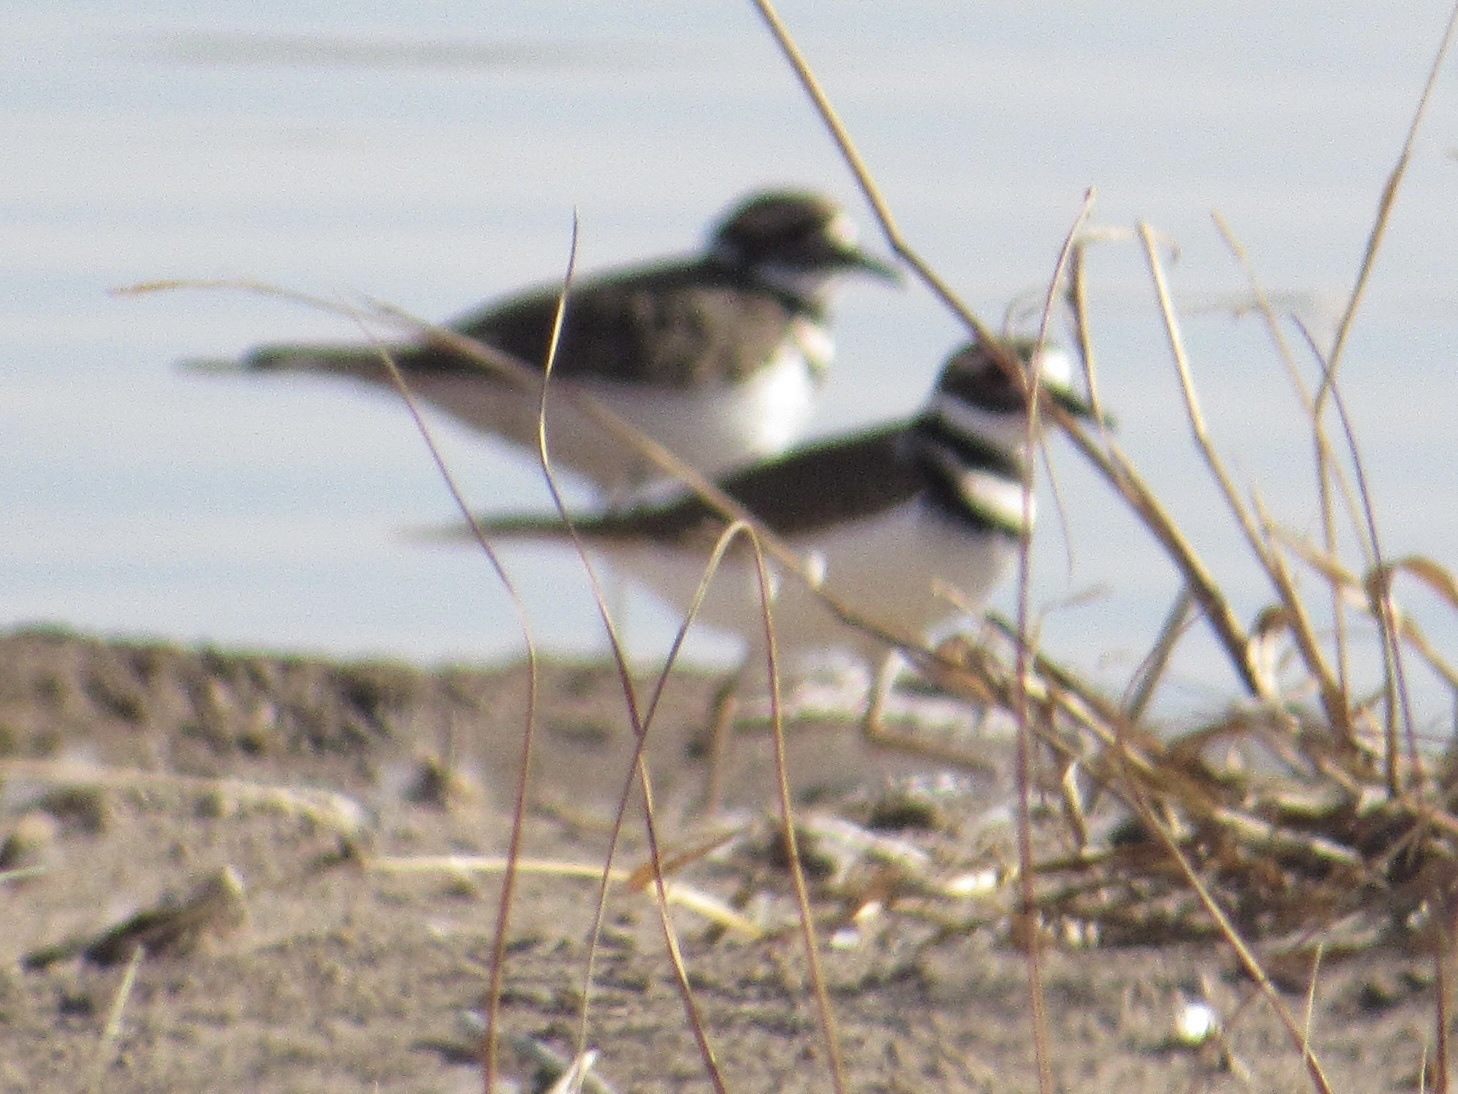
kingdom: Animalia
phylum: Chordata
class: Aves
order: Charadriiformes
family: Charadriidae
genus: Charadrius
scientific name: Charadrius vociferus
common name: Killdeer
